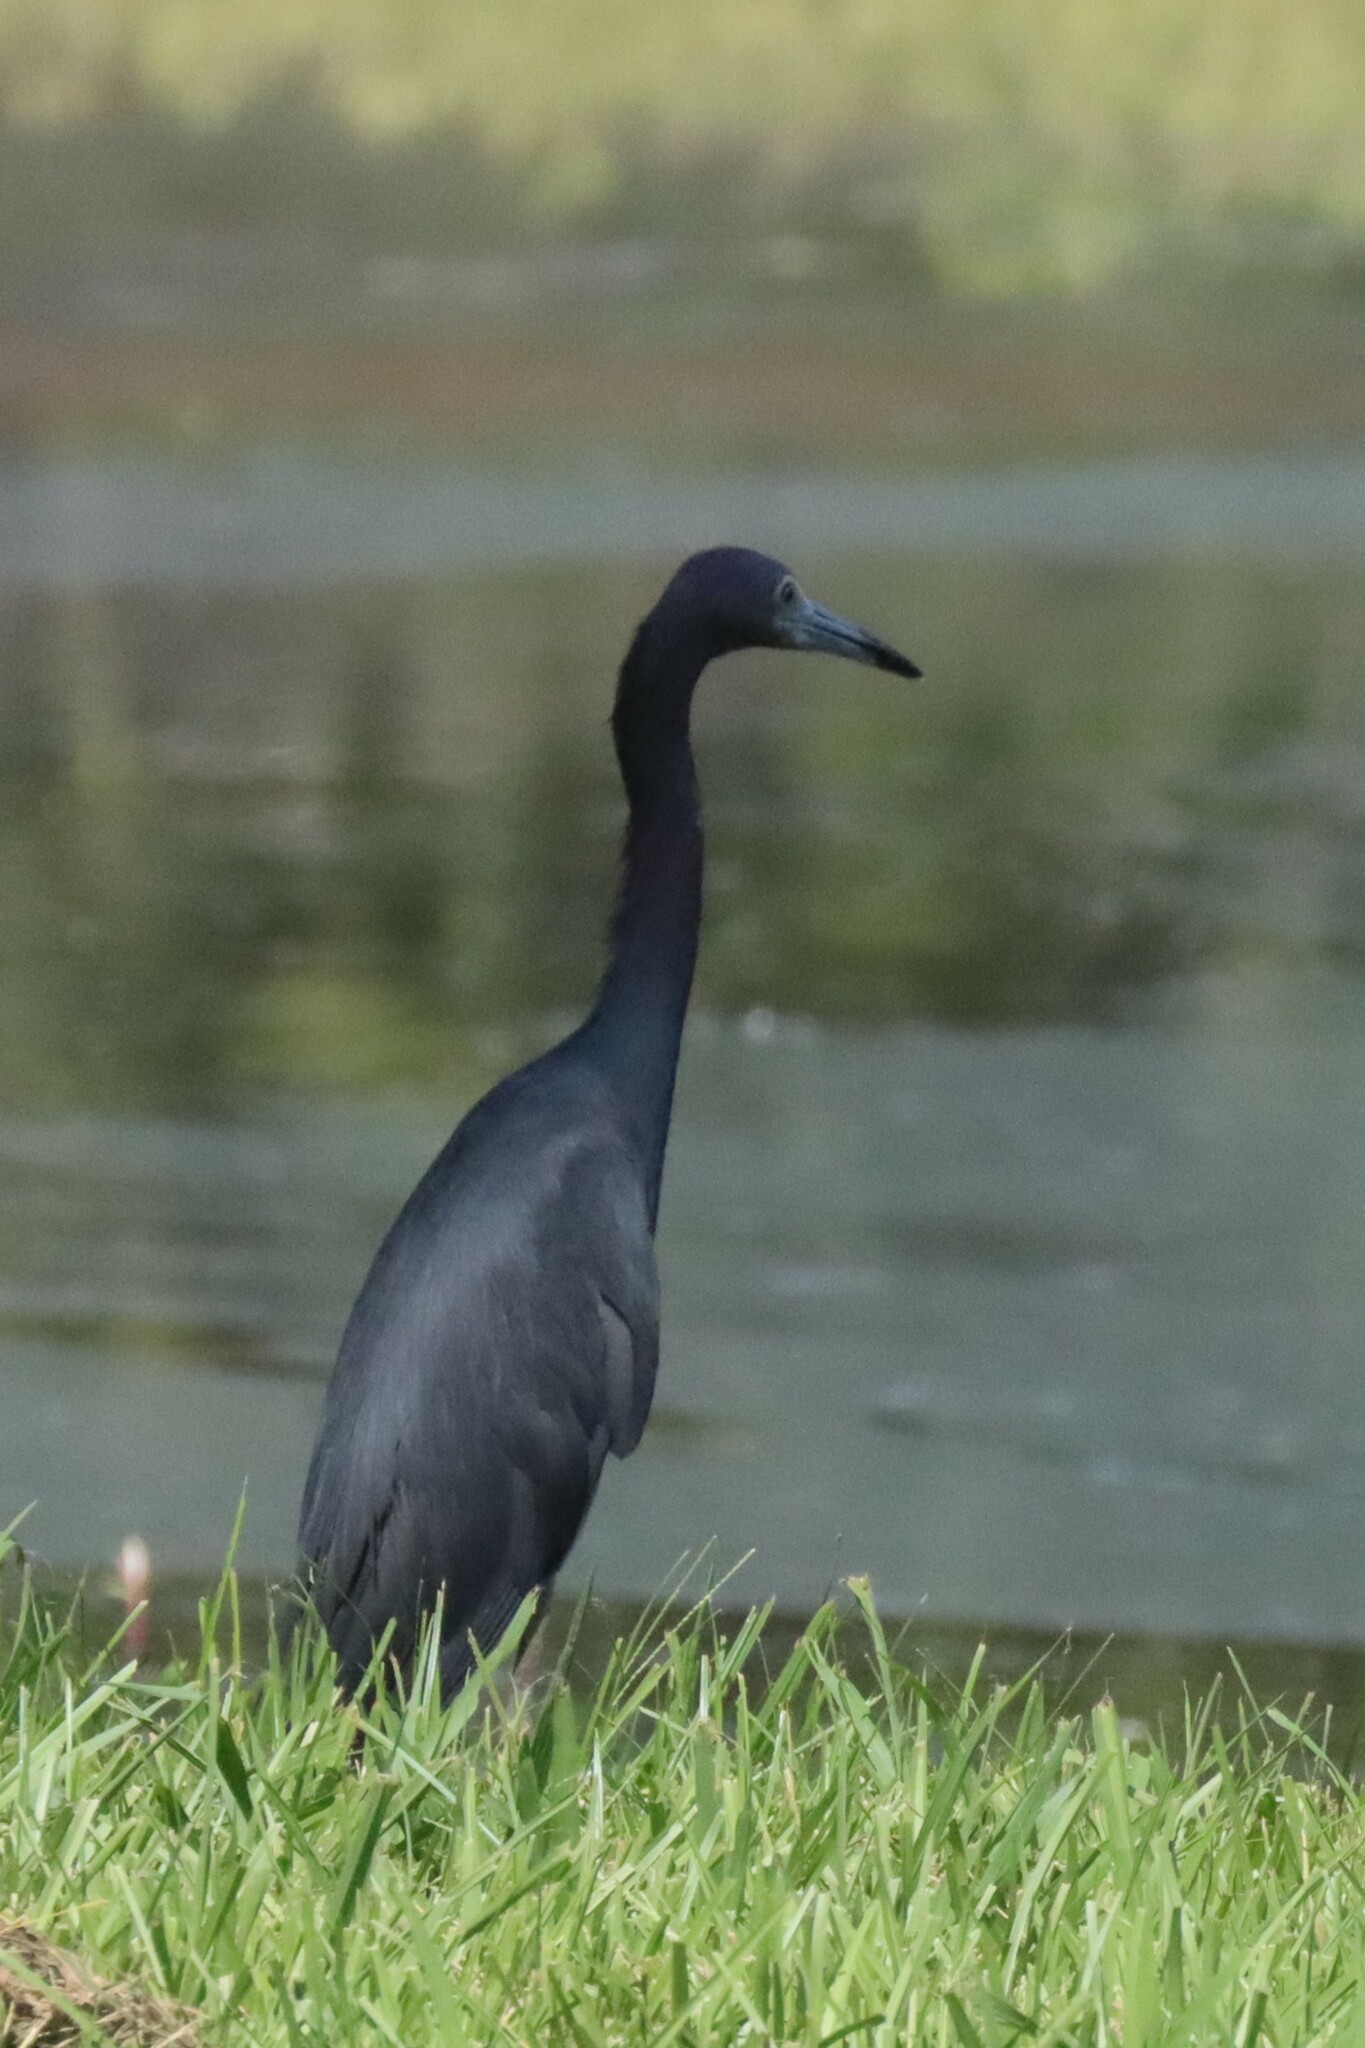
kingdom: Animalia
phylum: Chordata
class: Aves
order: Pelecaniformes
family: Ardeidae
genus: Egretta
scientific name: Egretta caerulea
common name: Little blue heron
